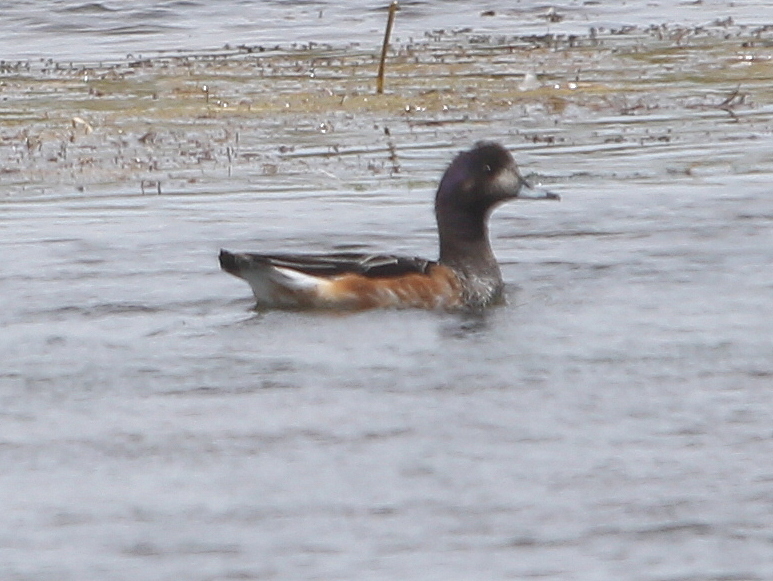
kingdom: Animalia
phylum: Chordata
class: Aves
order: Anseriformes
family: Anatidae
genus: Mareca
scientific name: Mareca sibilatrix
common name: Chiloe wigeon
